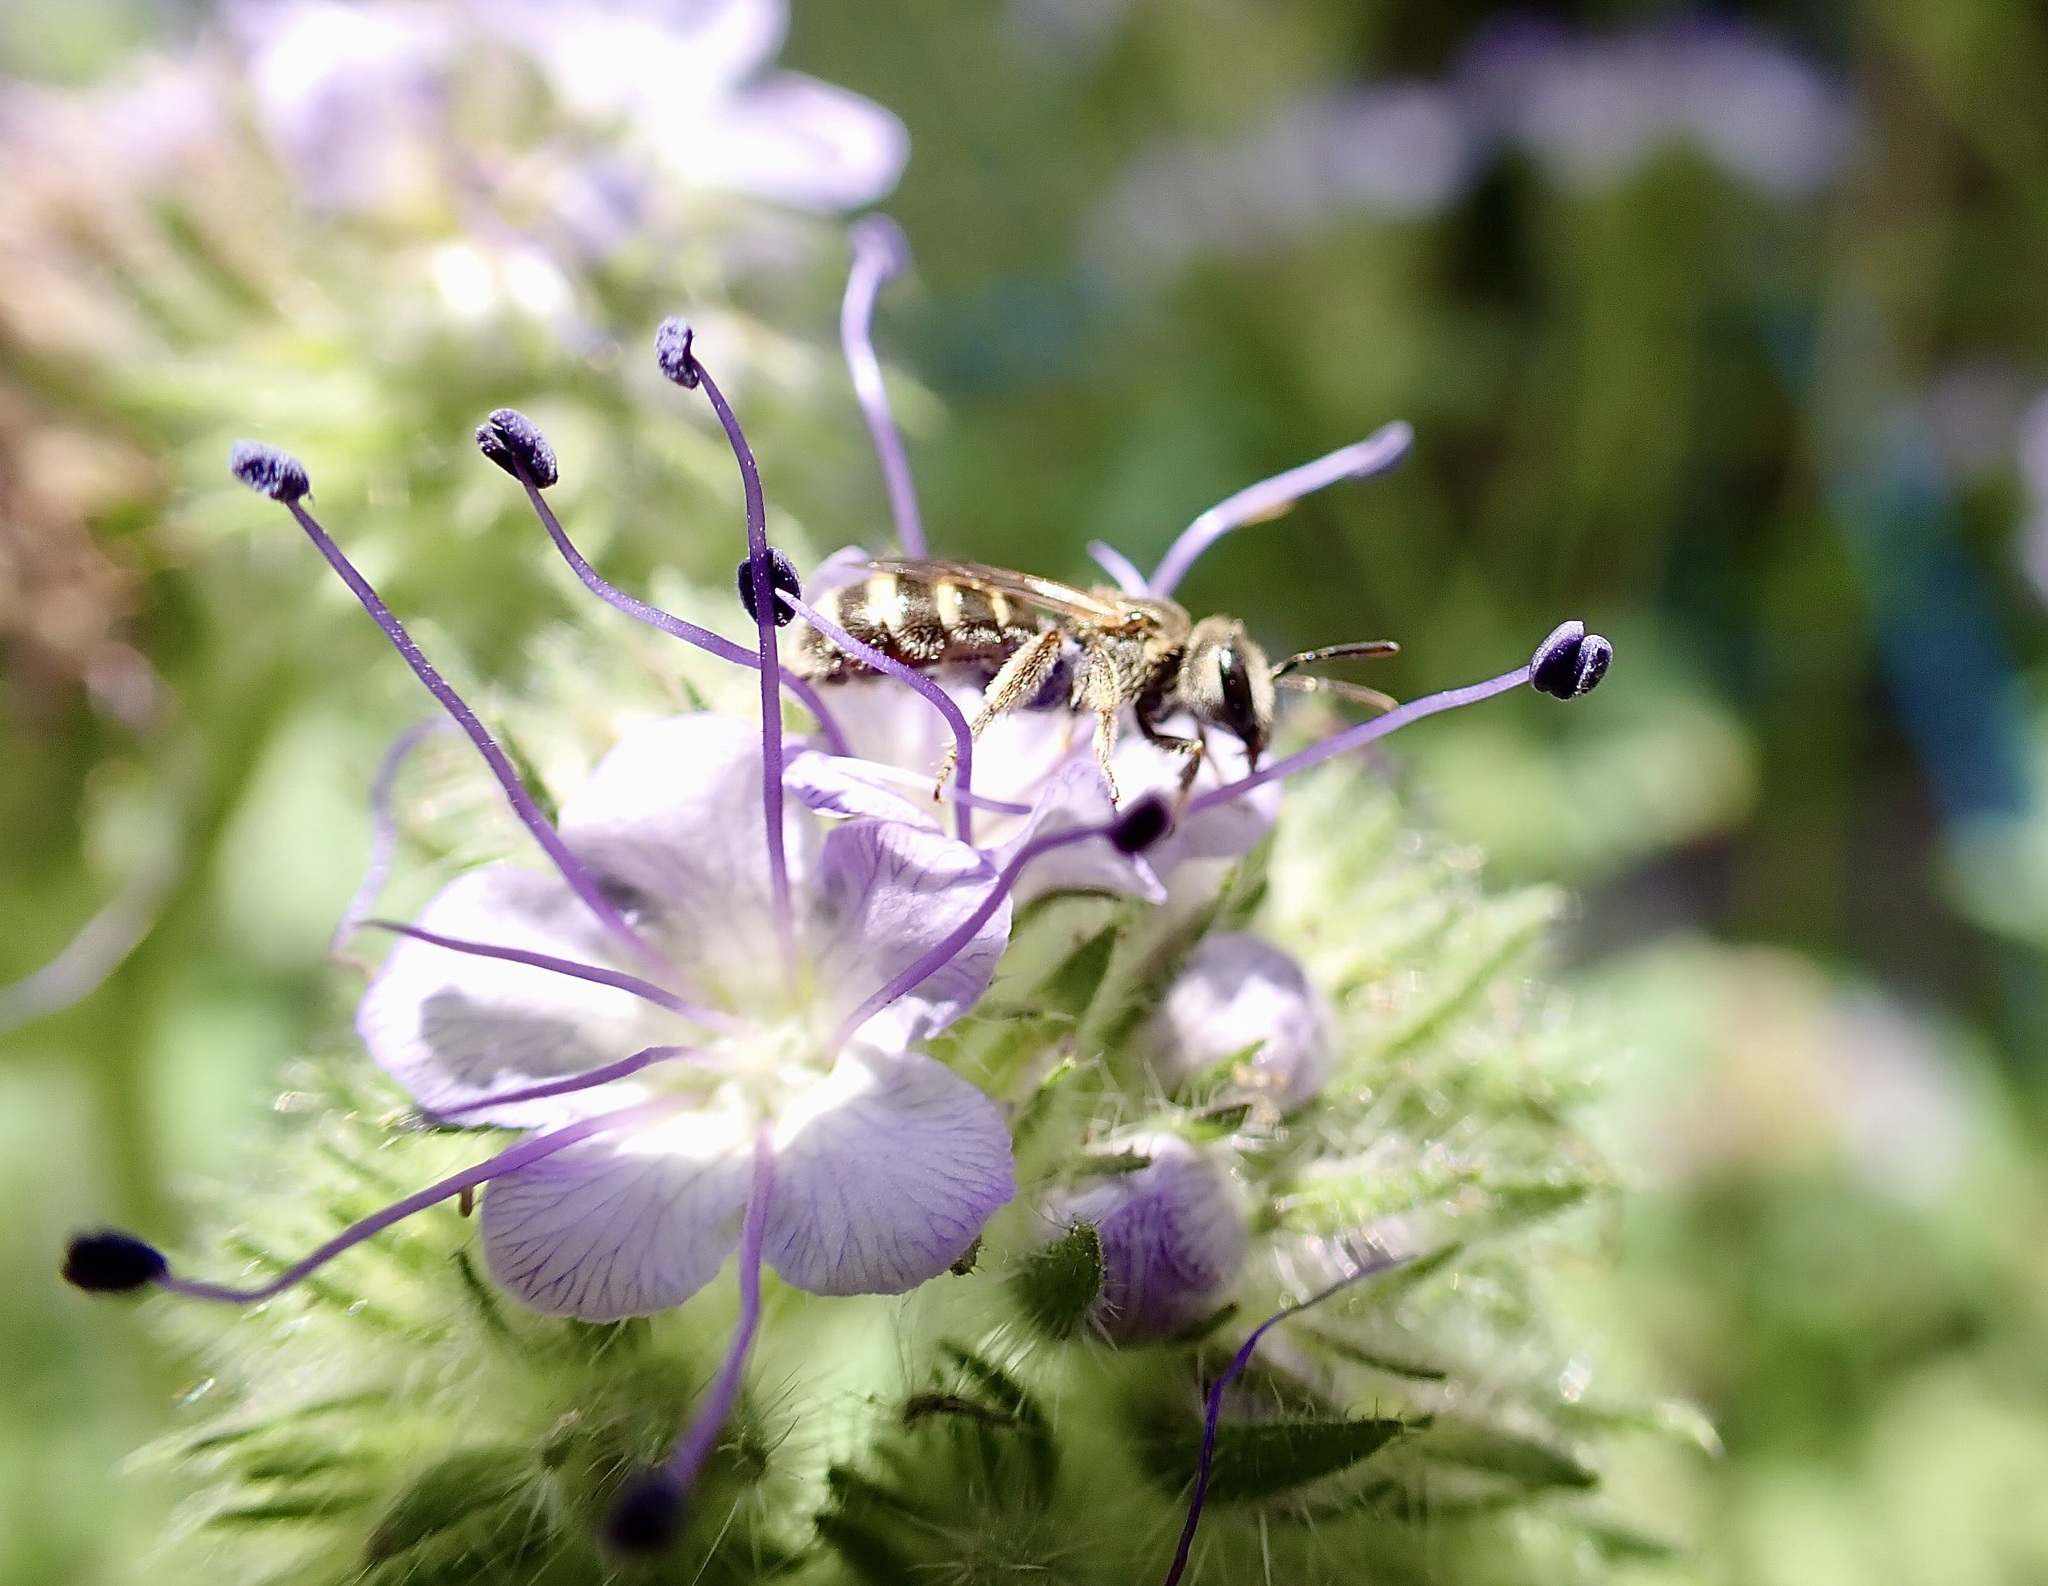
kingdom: Animalia
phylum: Arthropoda
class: Insecta
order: Hymenoptera
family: Halictidae
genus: Halictus
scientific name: Halictus tripartitus
